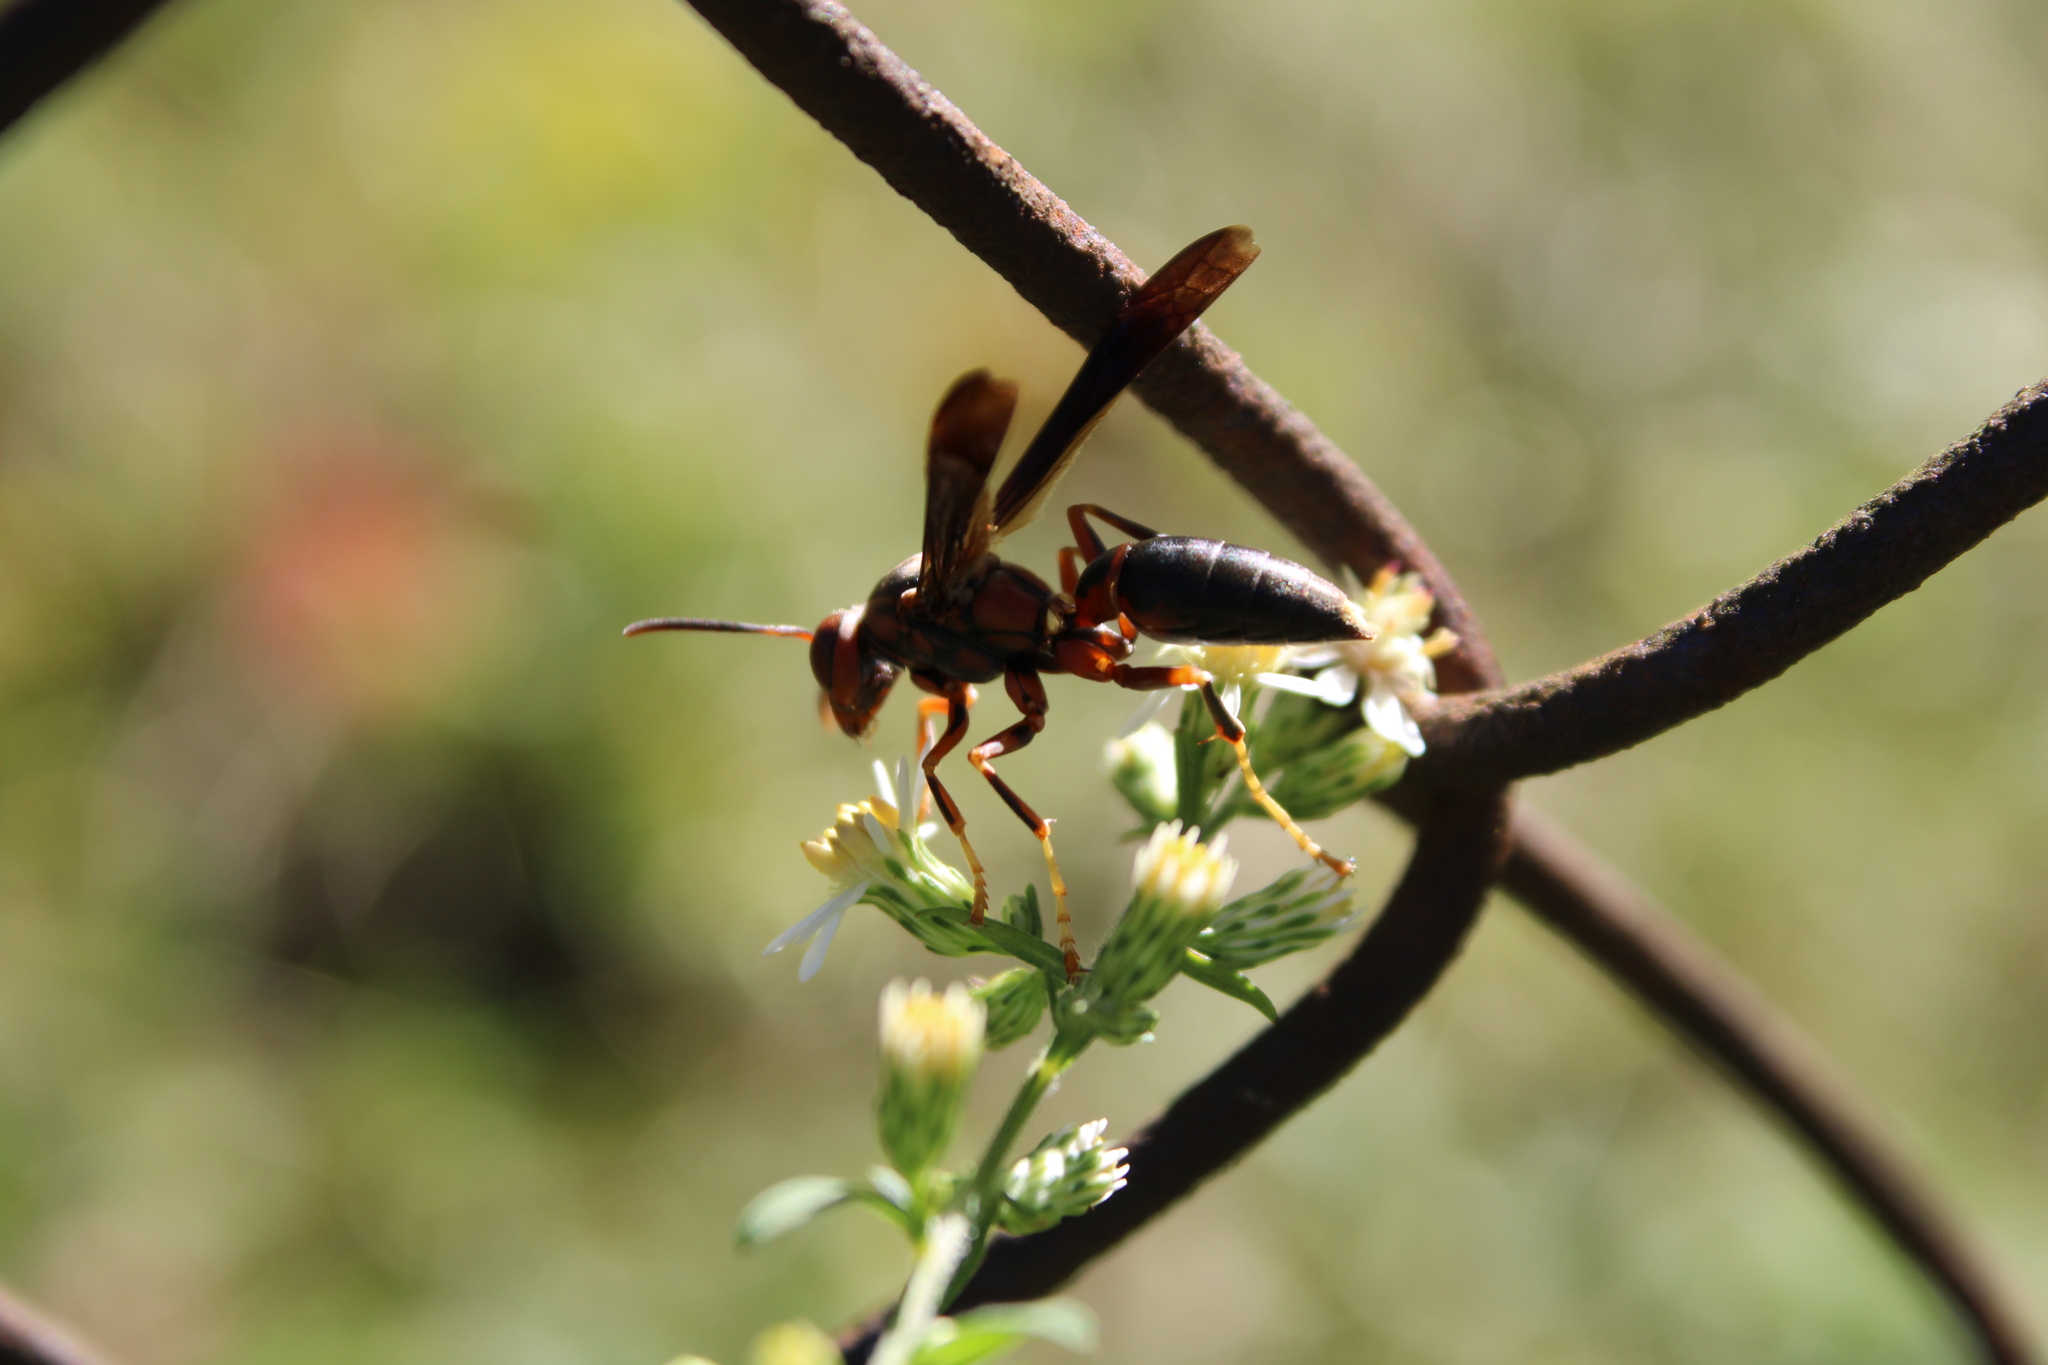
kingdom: Animalia
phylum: Arthropoda
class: Insecta
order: Hymenoptera
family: Eumenidae
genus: Polistes
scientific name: Polistes metricus
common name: Metric paper wasp
